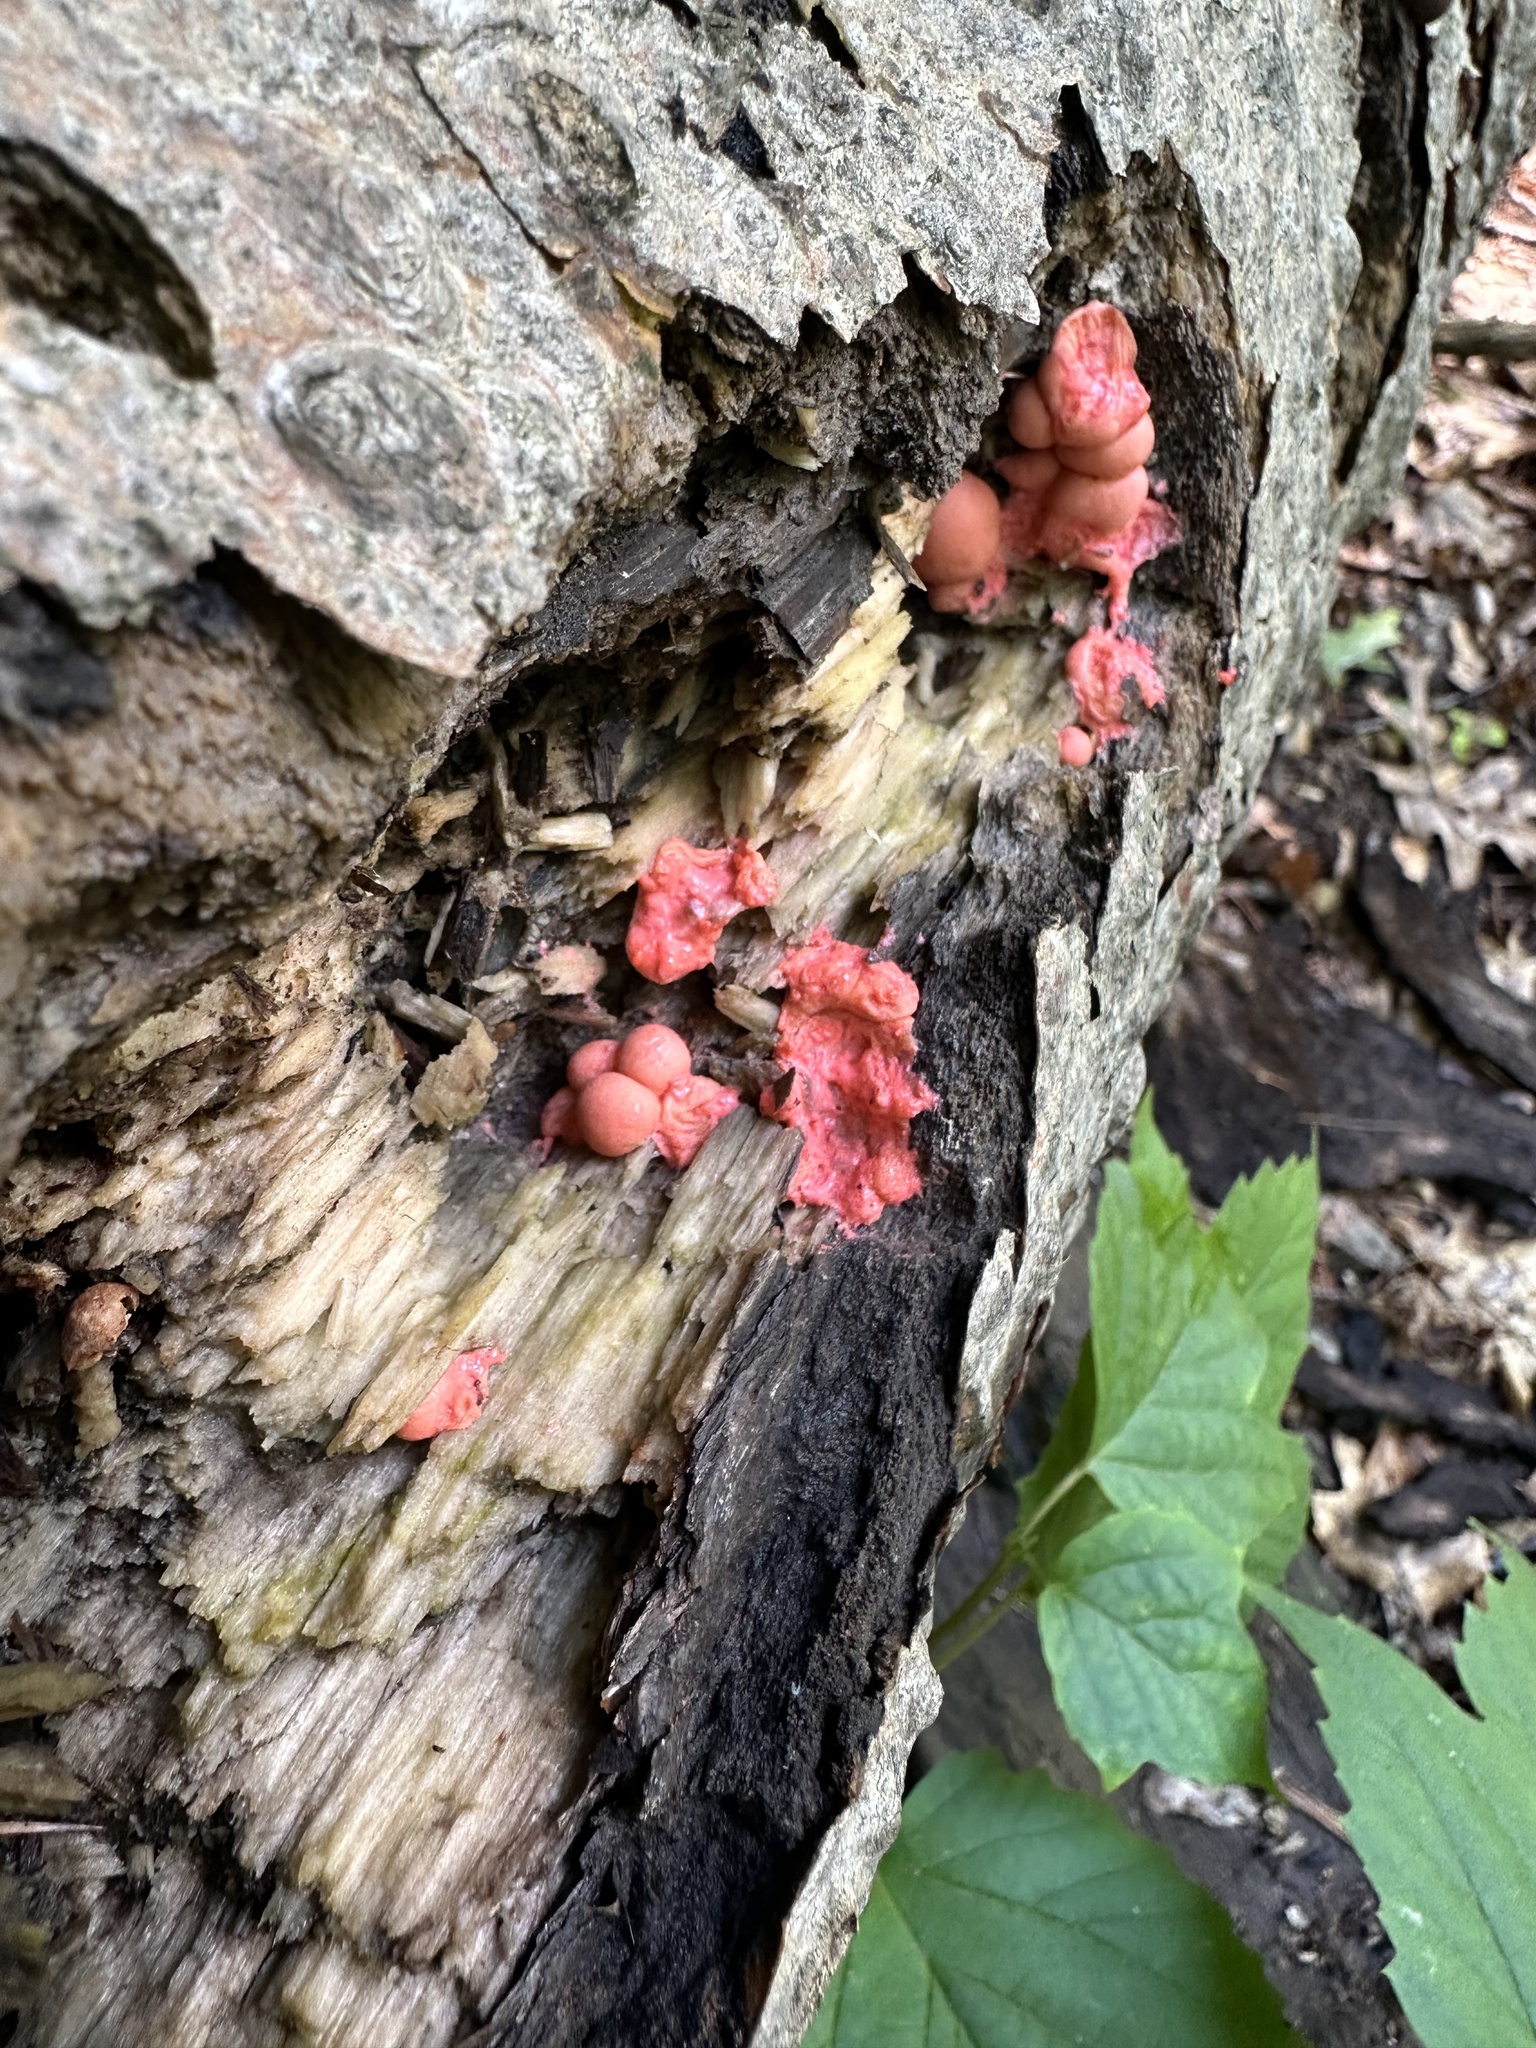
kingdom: Protozoa
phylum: Mycetozoa
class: Myxomycetes
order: Cribrariales
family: Tubiferaceae
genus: Lycogala
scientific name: Lycogala epidendrum
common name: Wolf's milk
